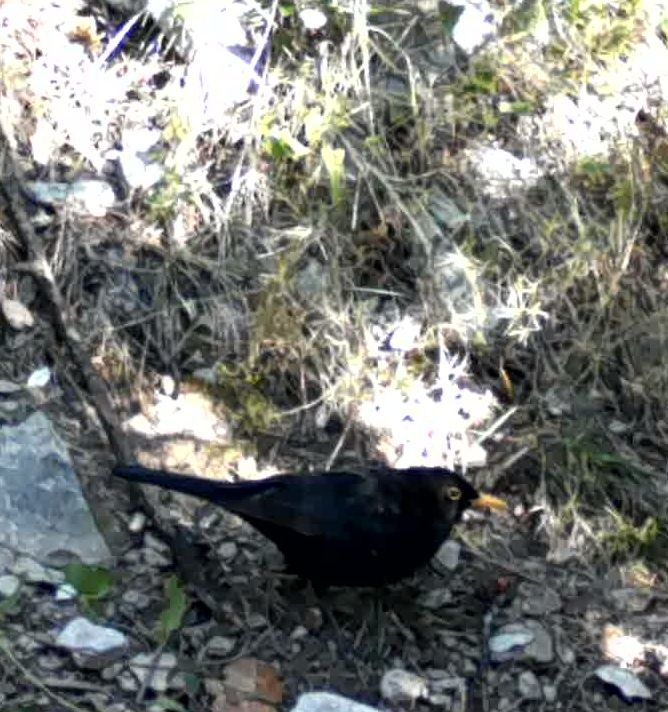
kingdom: Animalia
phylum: Chordata
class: Aves
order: Passeriformes
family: Turdidae
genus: Turdus
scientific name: Turdus merula
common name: Common blackbird
